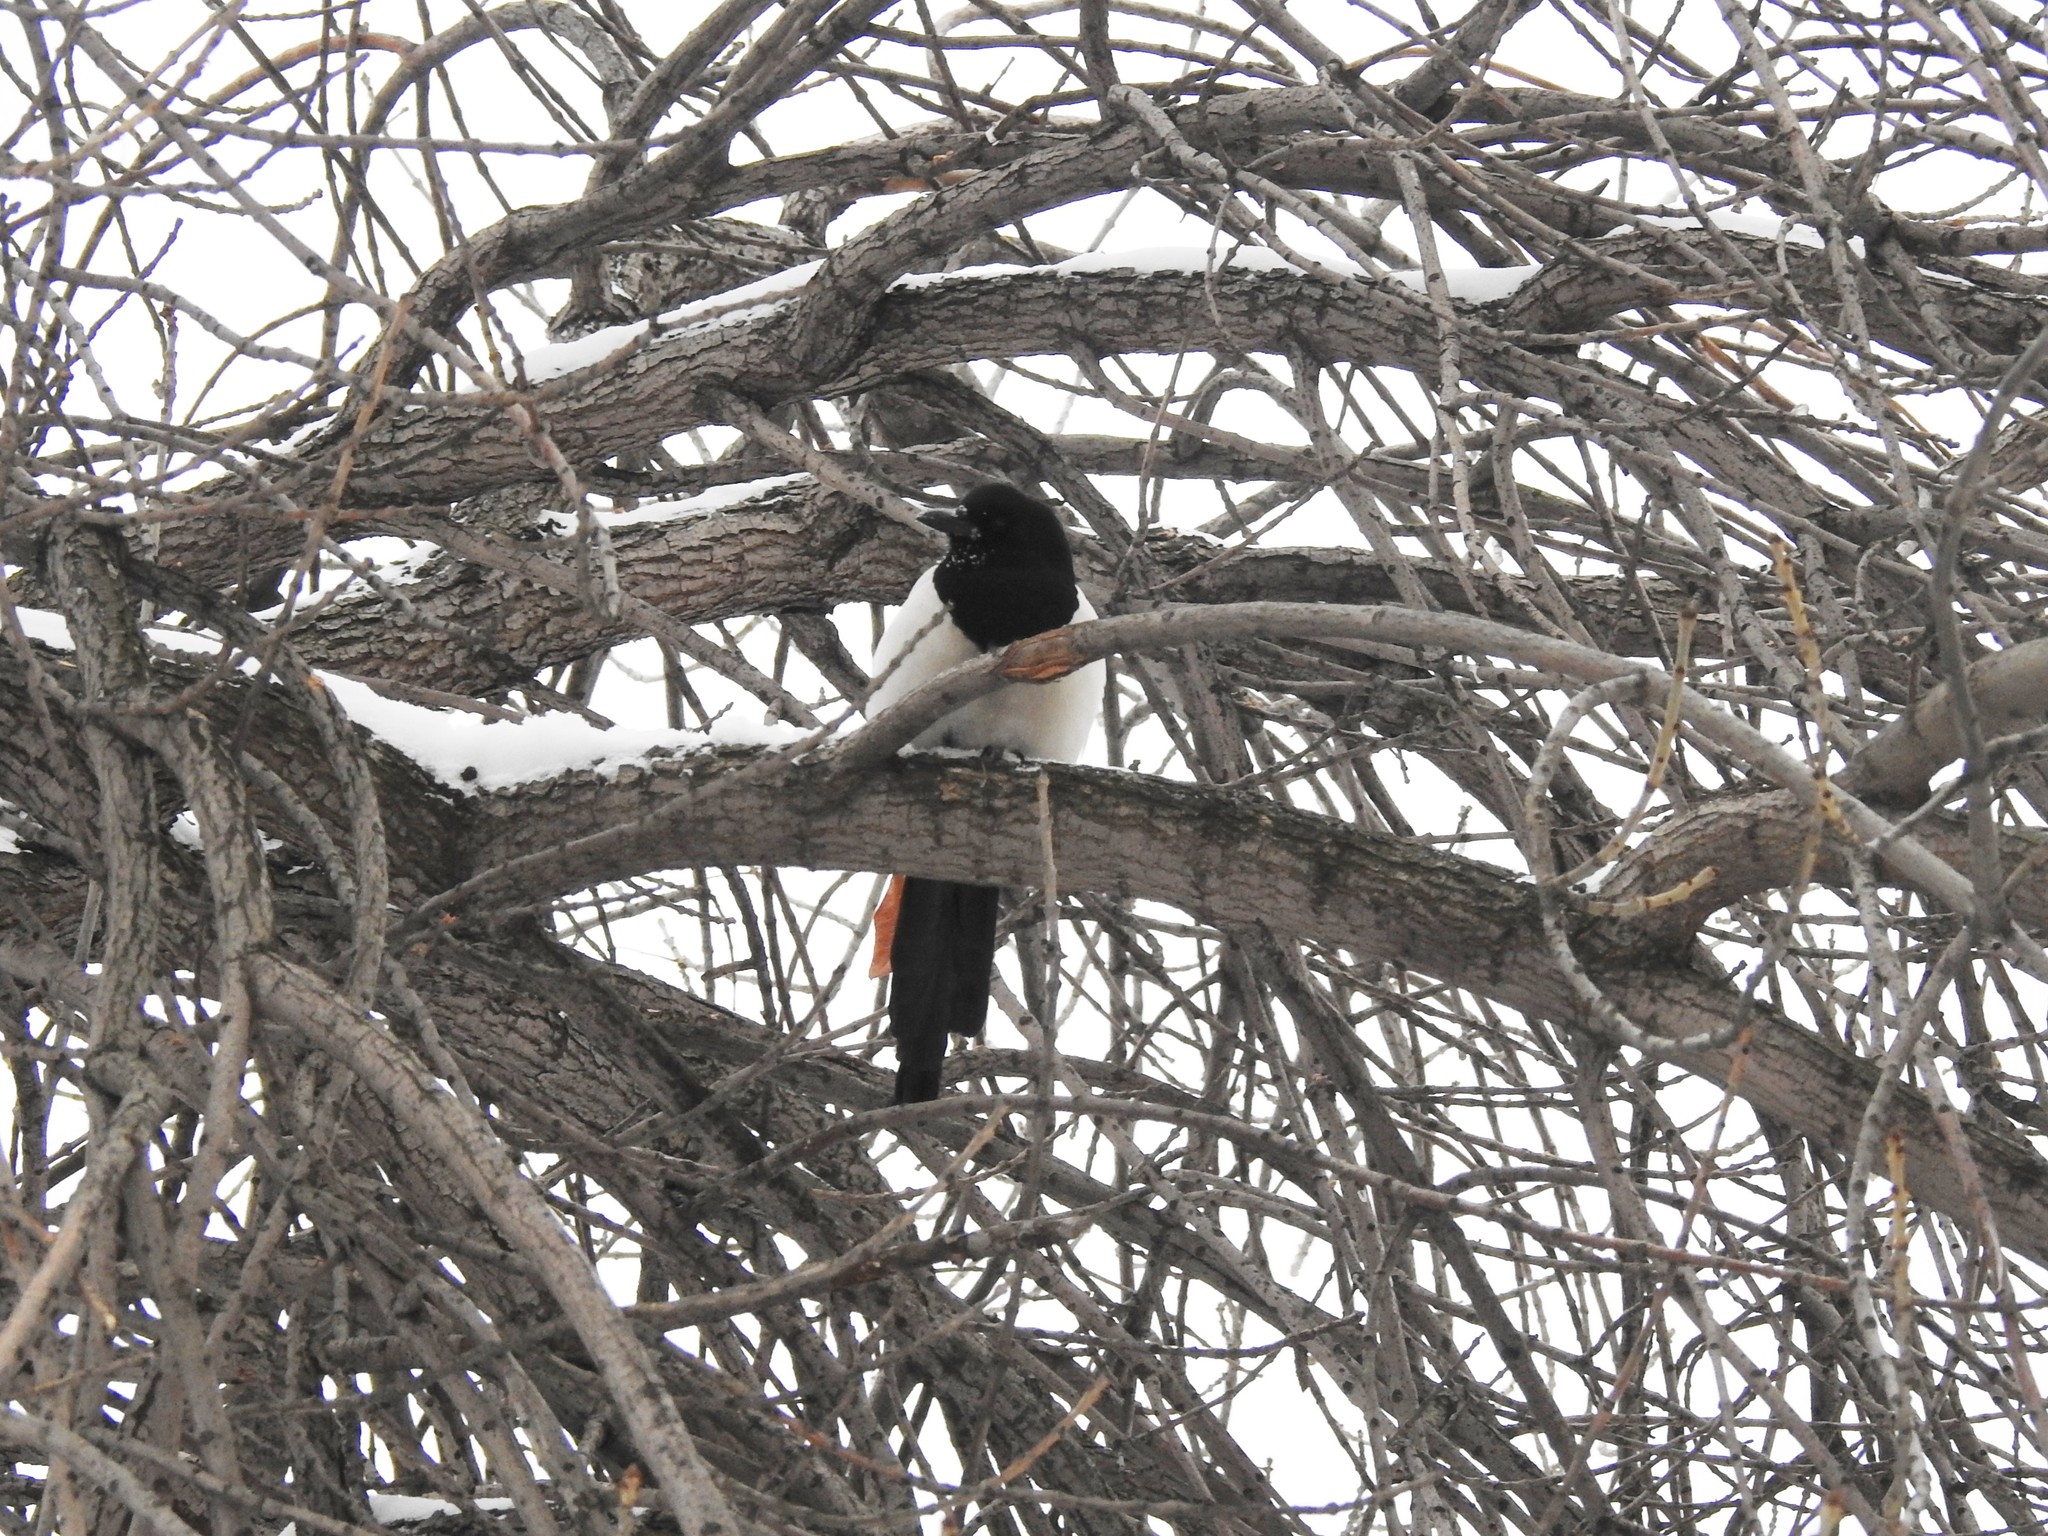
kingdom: Animalia
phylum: Chordata
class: Aves
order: Passeriformes
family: Corvidae
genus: Pica
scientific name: Pica pica
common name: Eurasian magpie
